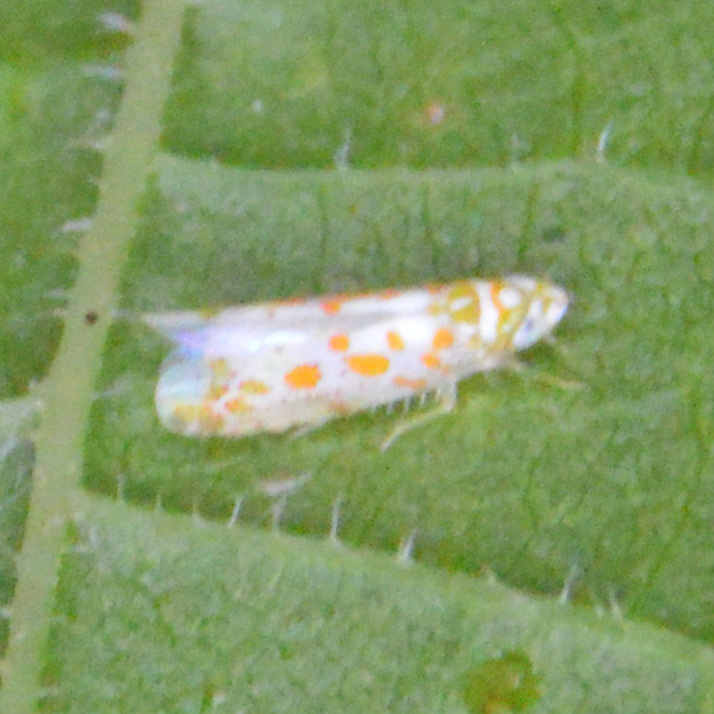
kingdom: Animalia
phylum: Arthropoda
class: Insecta
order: Hemiptera
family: Cicadellidae
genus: Dikrella
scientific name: Dikrella maculata
